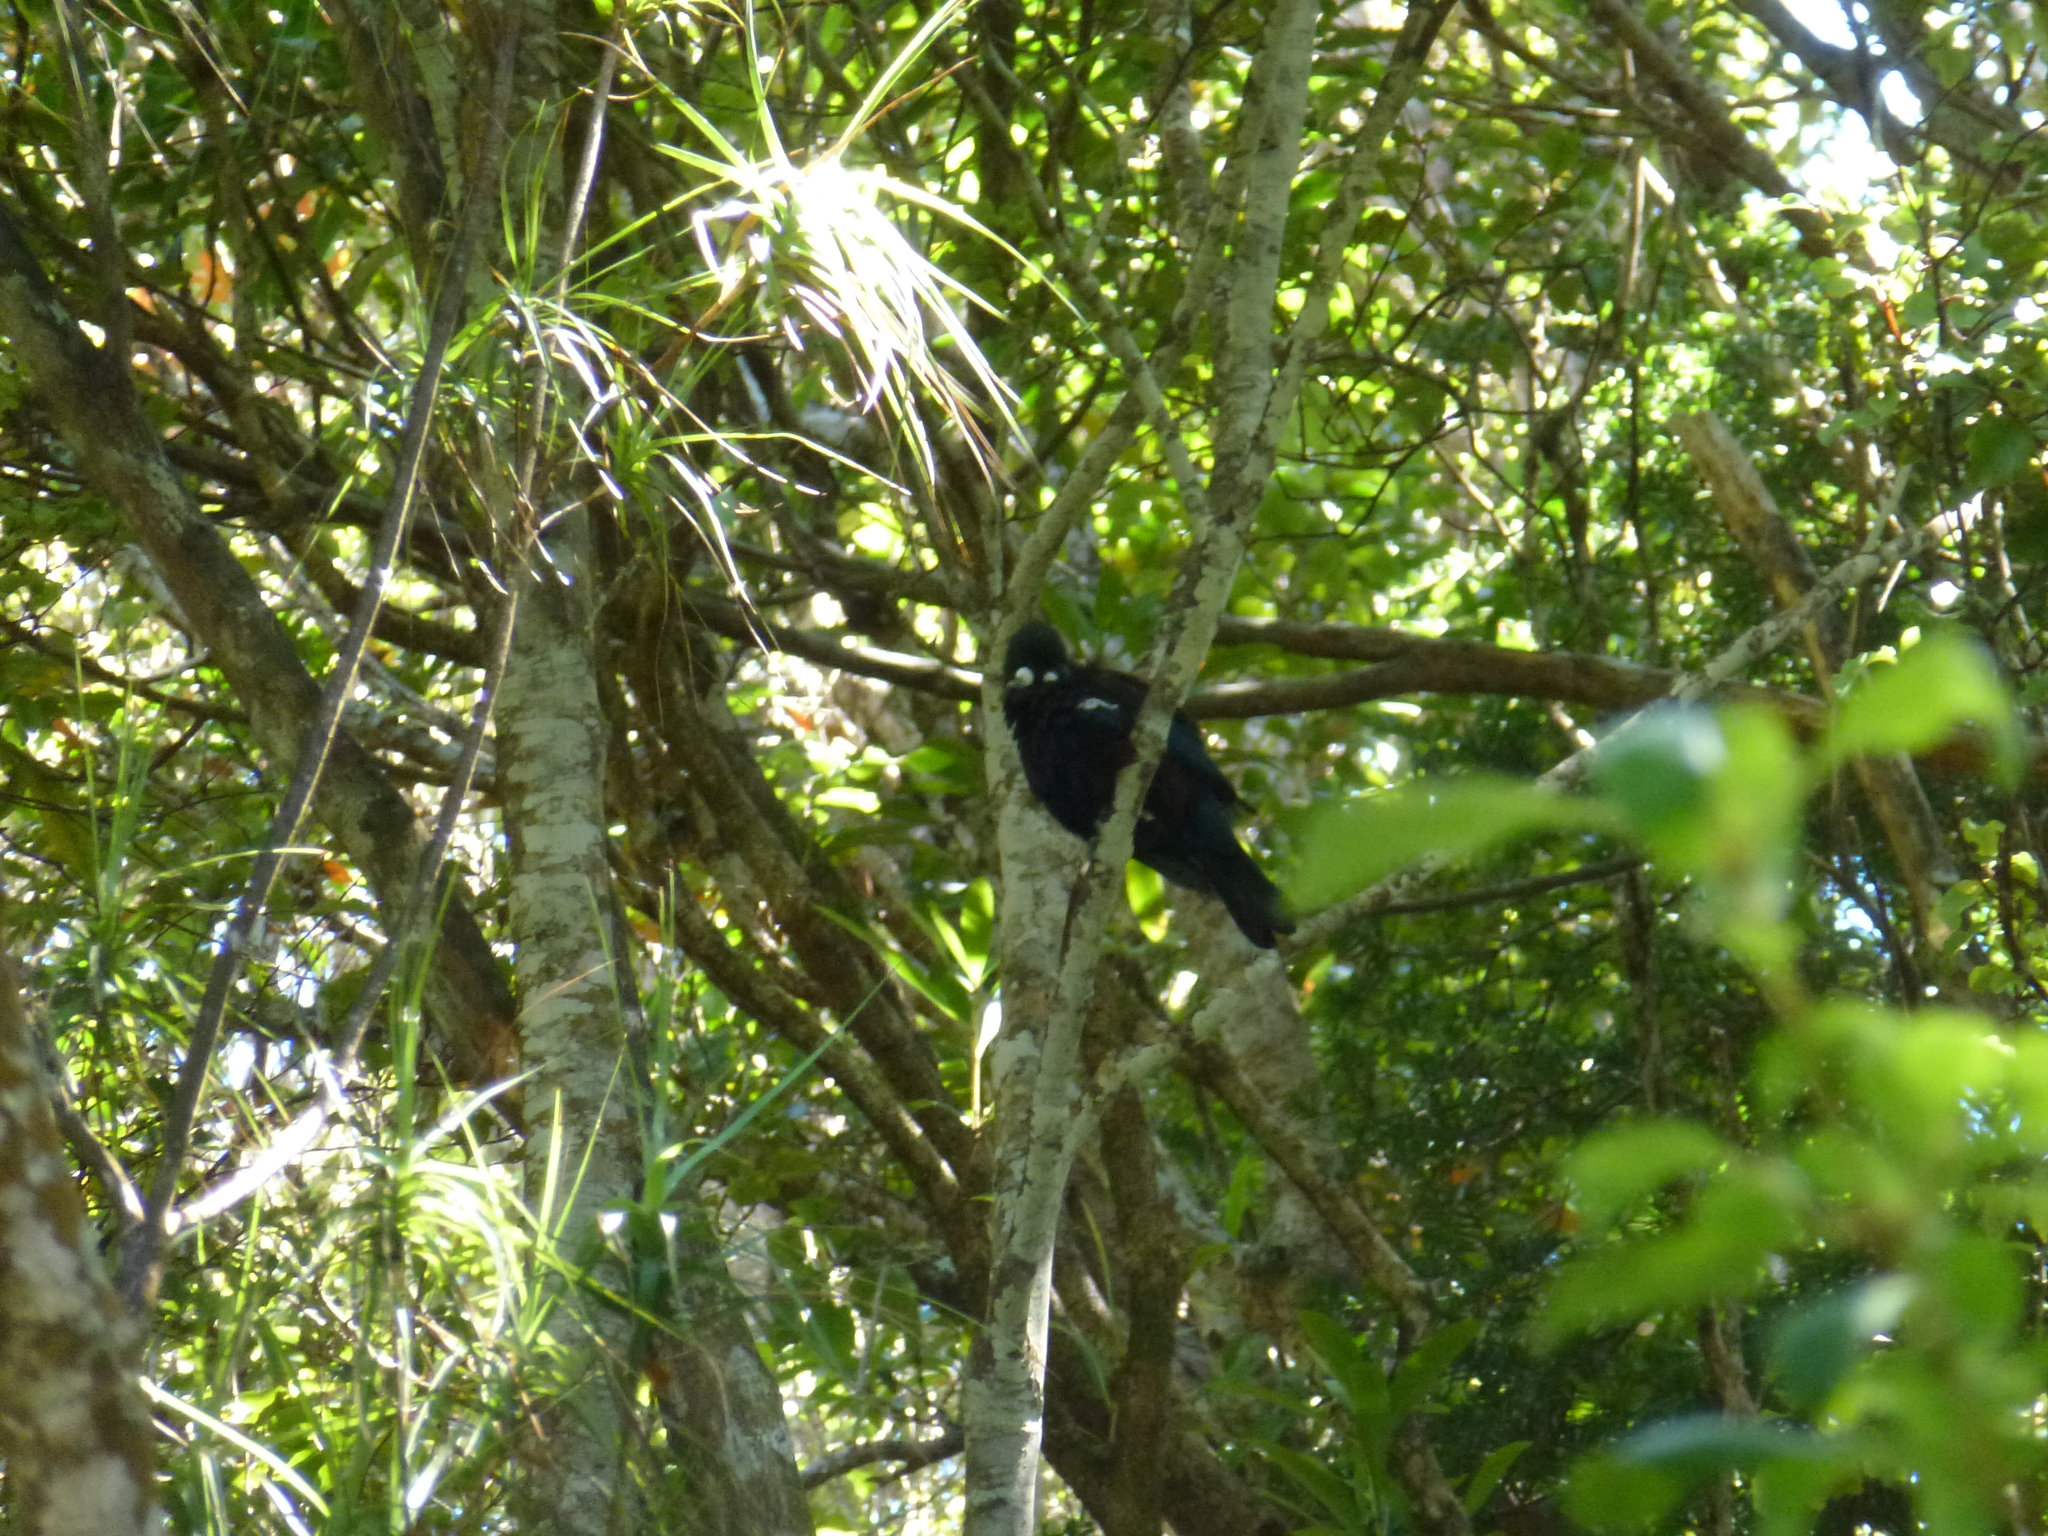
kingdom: Animalia
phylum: Chordata
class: Aves
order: Passeriformes
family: Meliphagidae
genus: Prosthemadera
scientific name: Prosthemadera novaeseelandiae
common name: Tui
